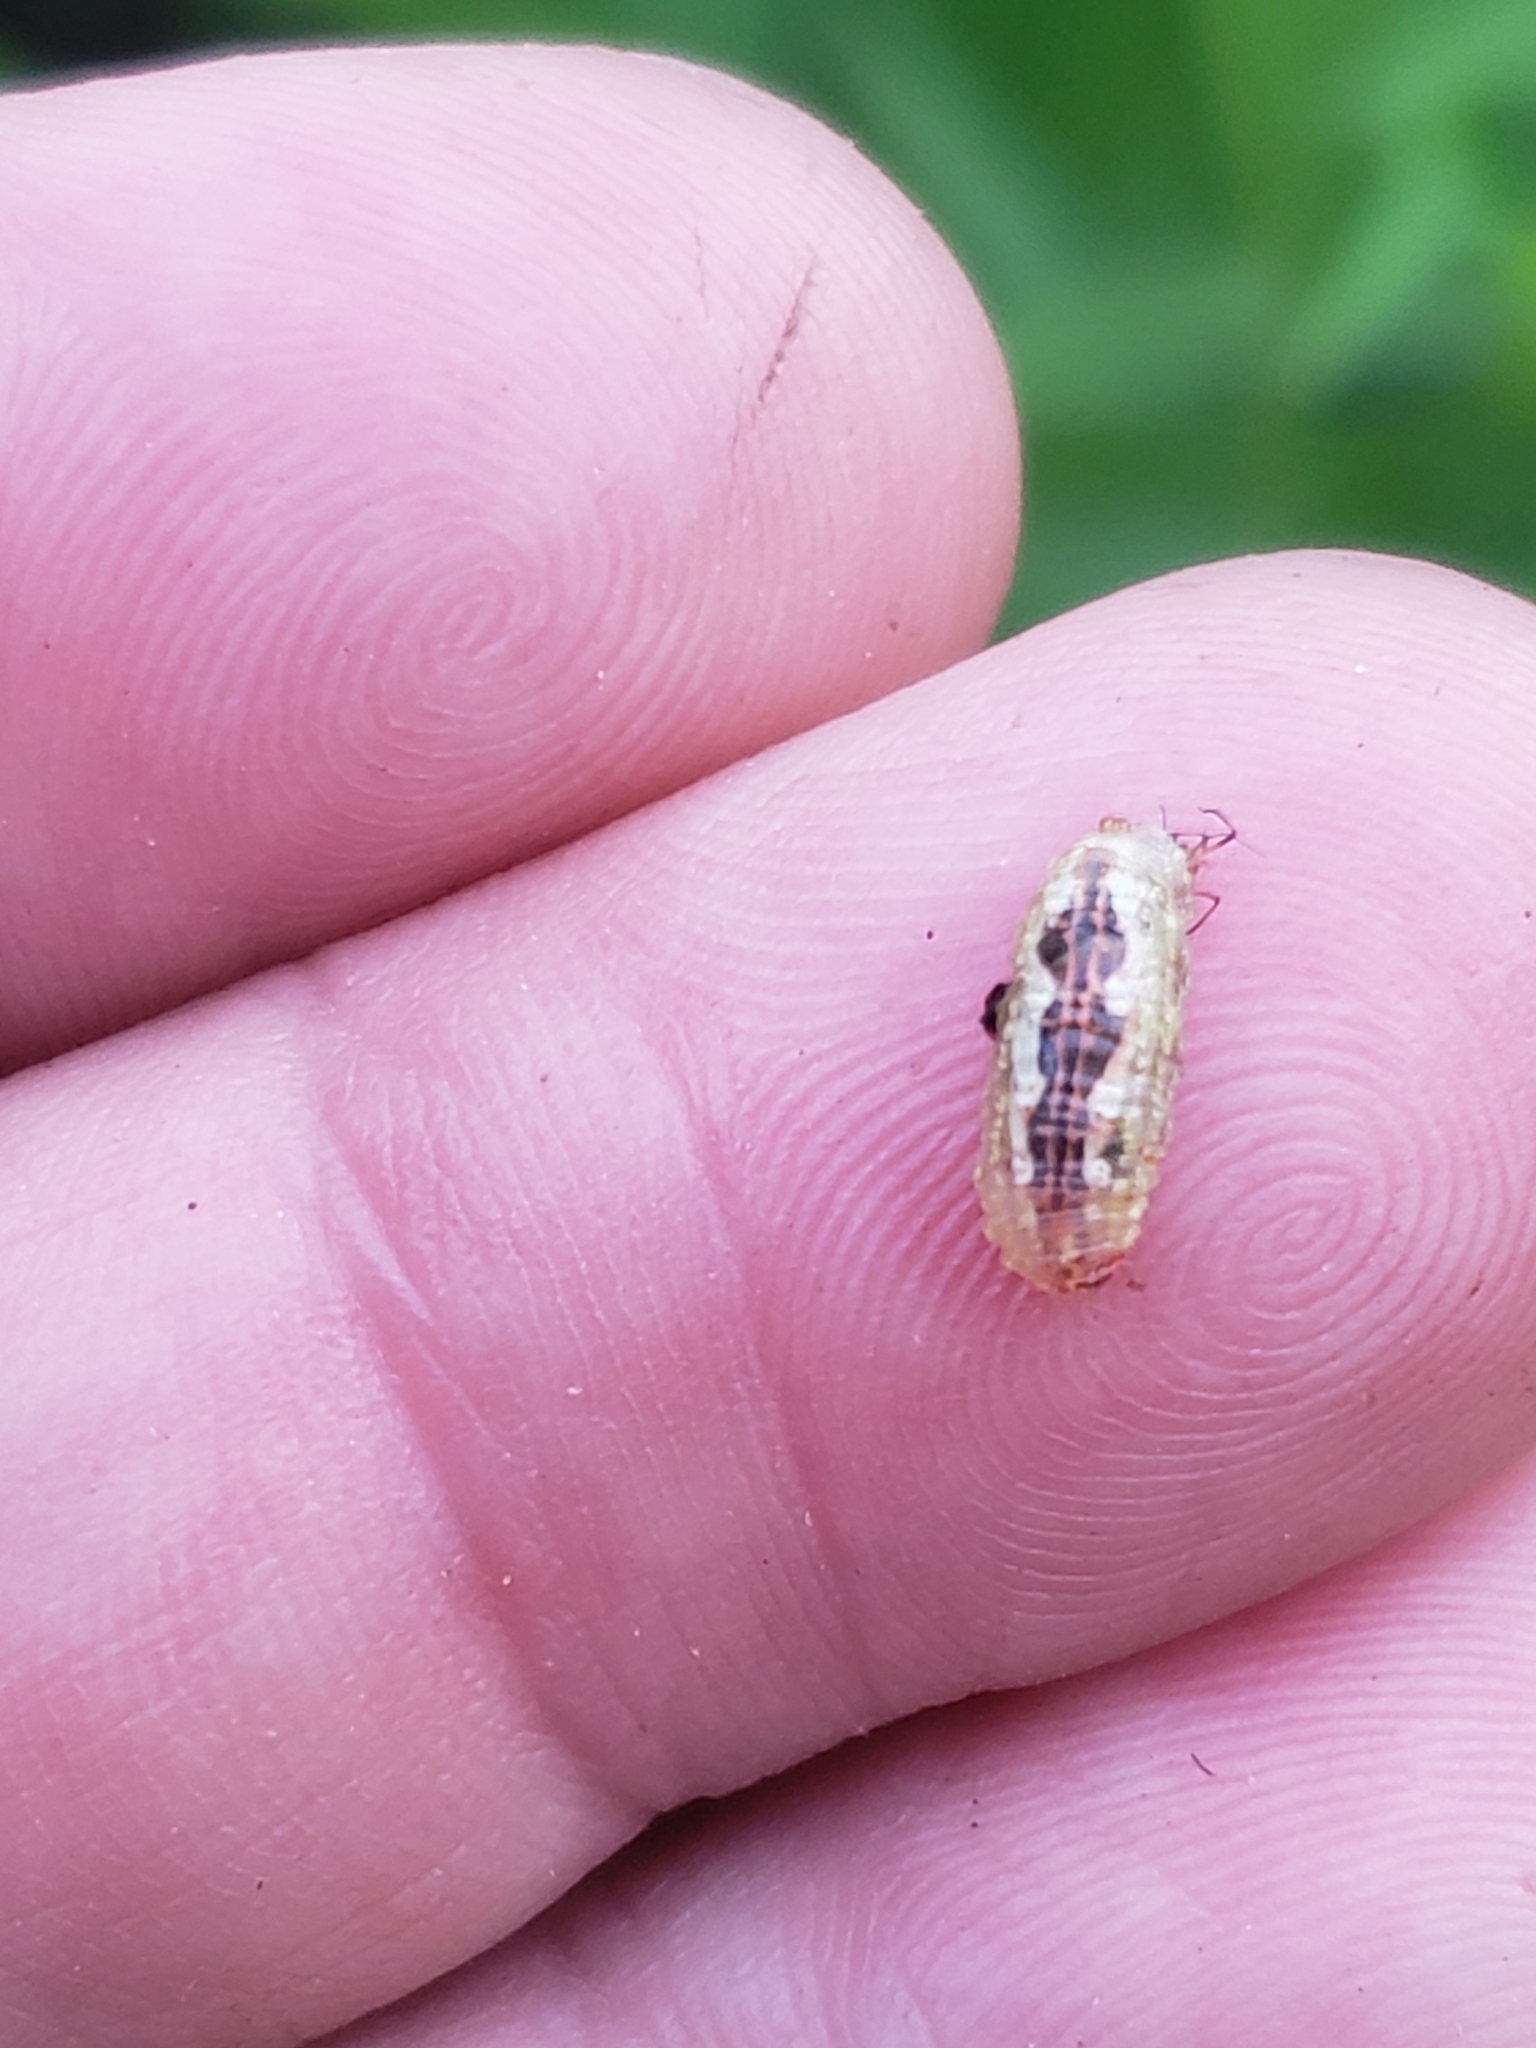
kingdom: Animalia
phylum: Arthropoda
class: Insecta
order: Diptera
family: Syrphidae
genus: Syrphus
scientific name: Syrphus
